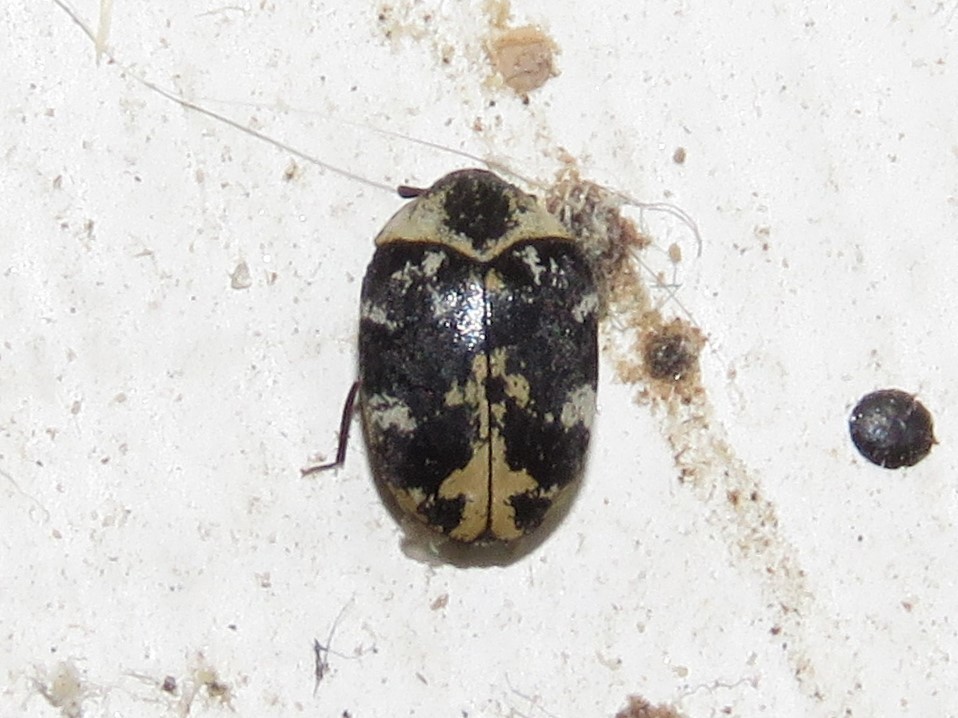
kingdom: Animalia
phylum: Arthropoda
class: Insecta
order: Coleoptera
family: Dermestidae
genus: Anthrenus
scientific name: Anthrenus scrophulariae
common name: Buffalo carpet beetle
